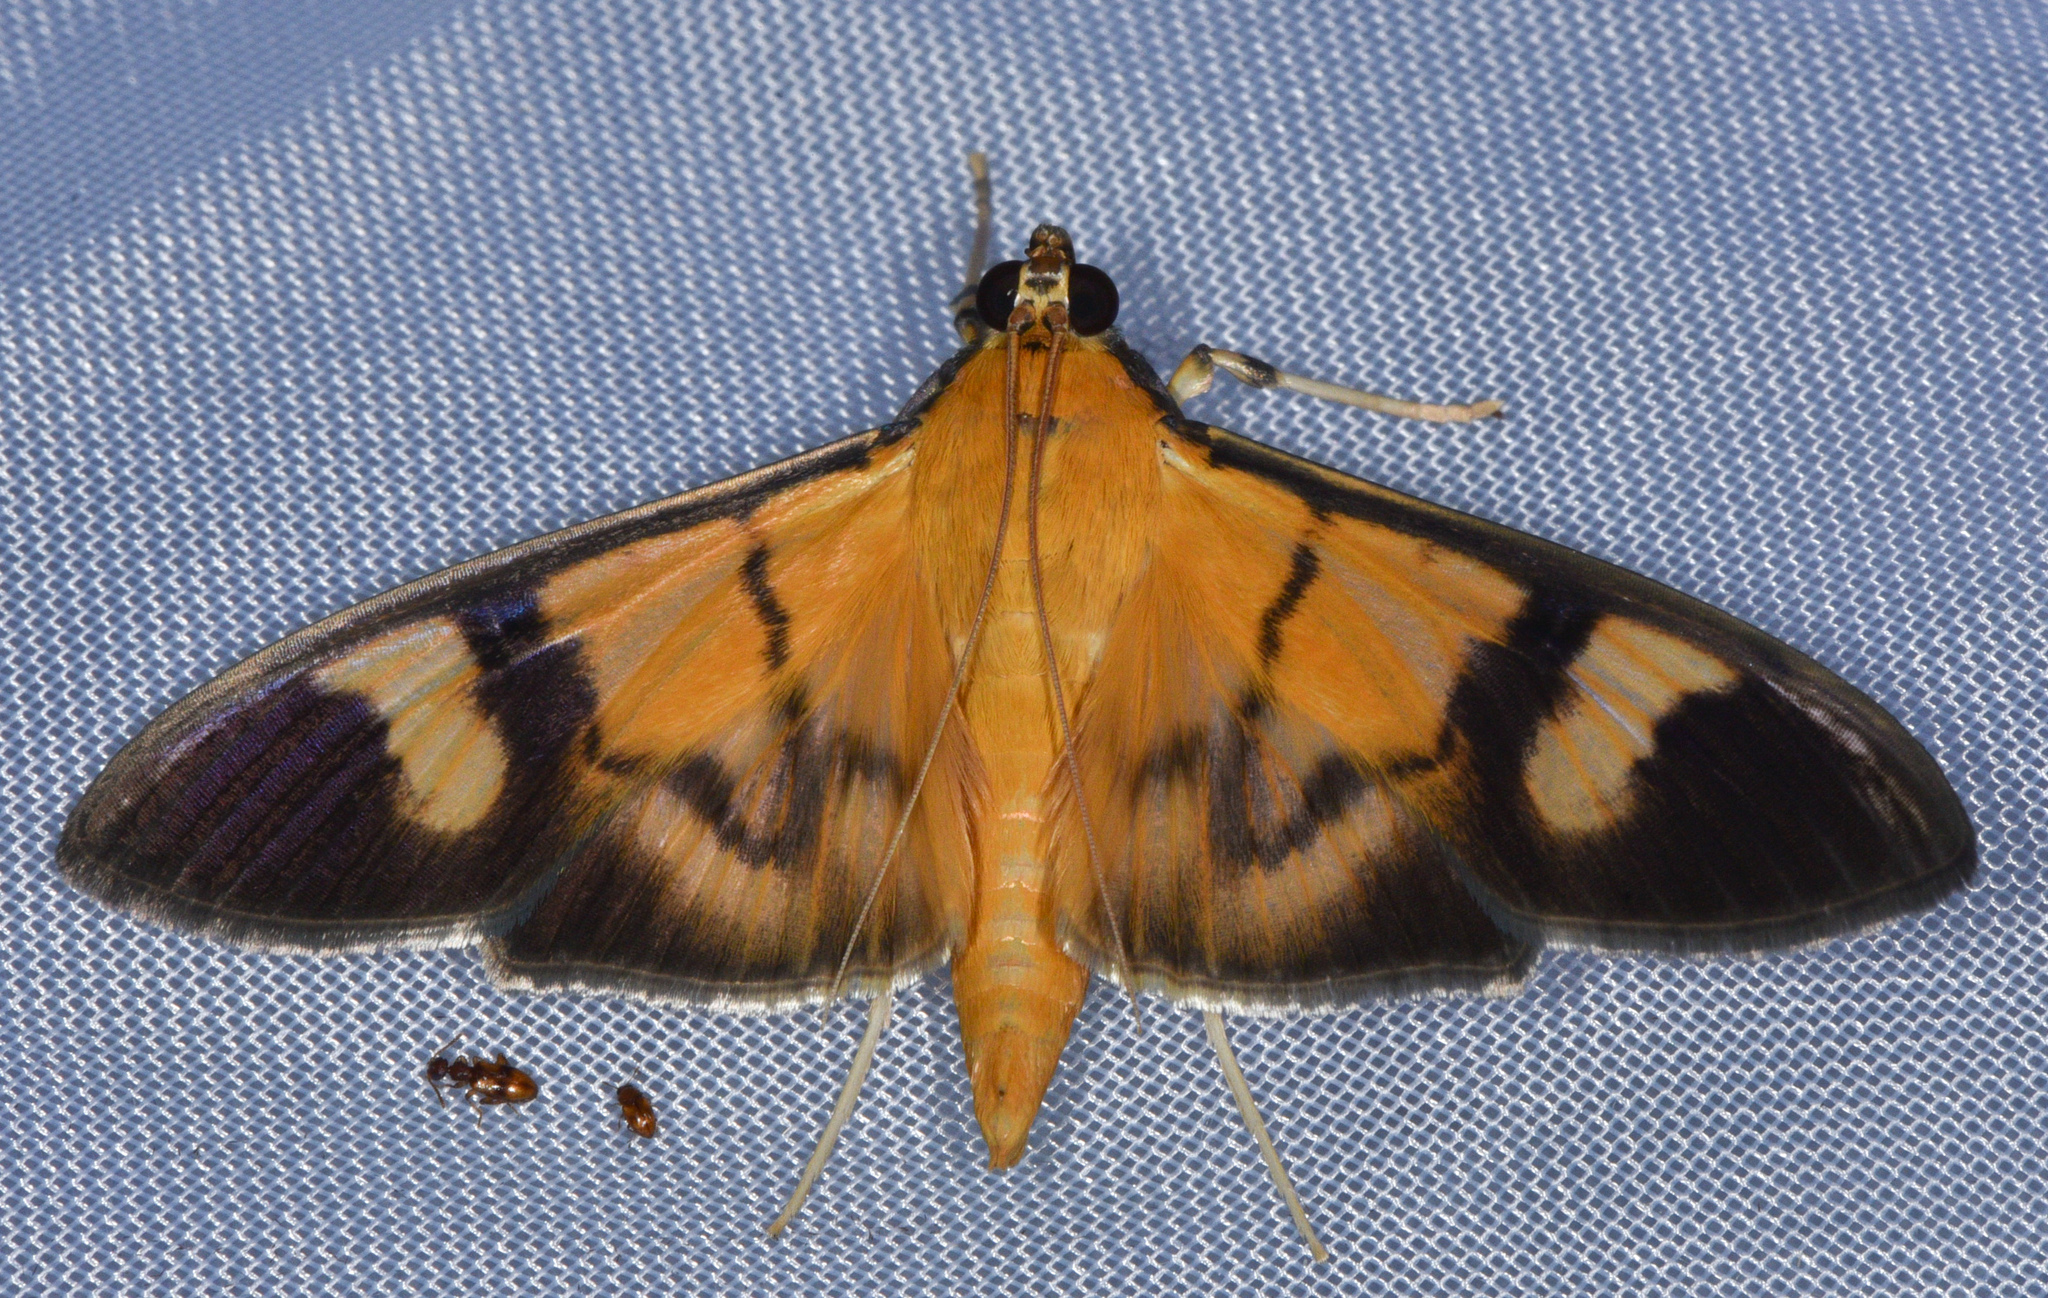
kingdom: Animalia
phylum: Arthropoda
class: Insecta
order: Lepidoptera
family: Crambidae
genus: Phostria
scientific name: Phostria dohrni
